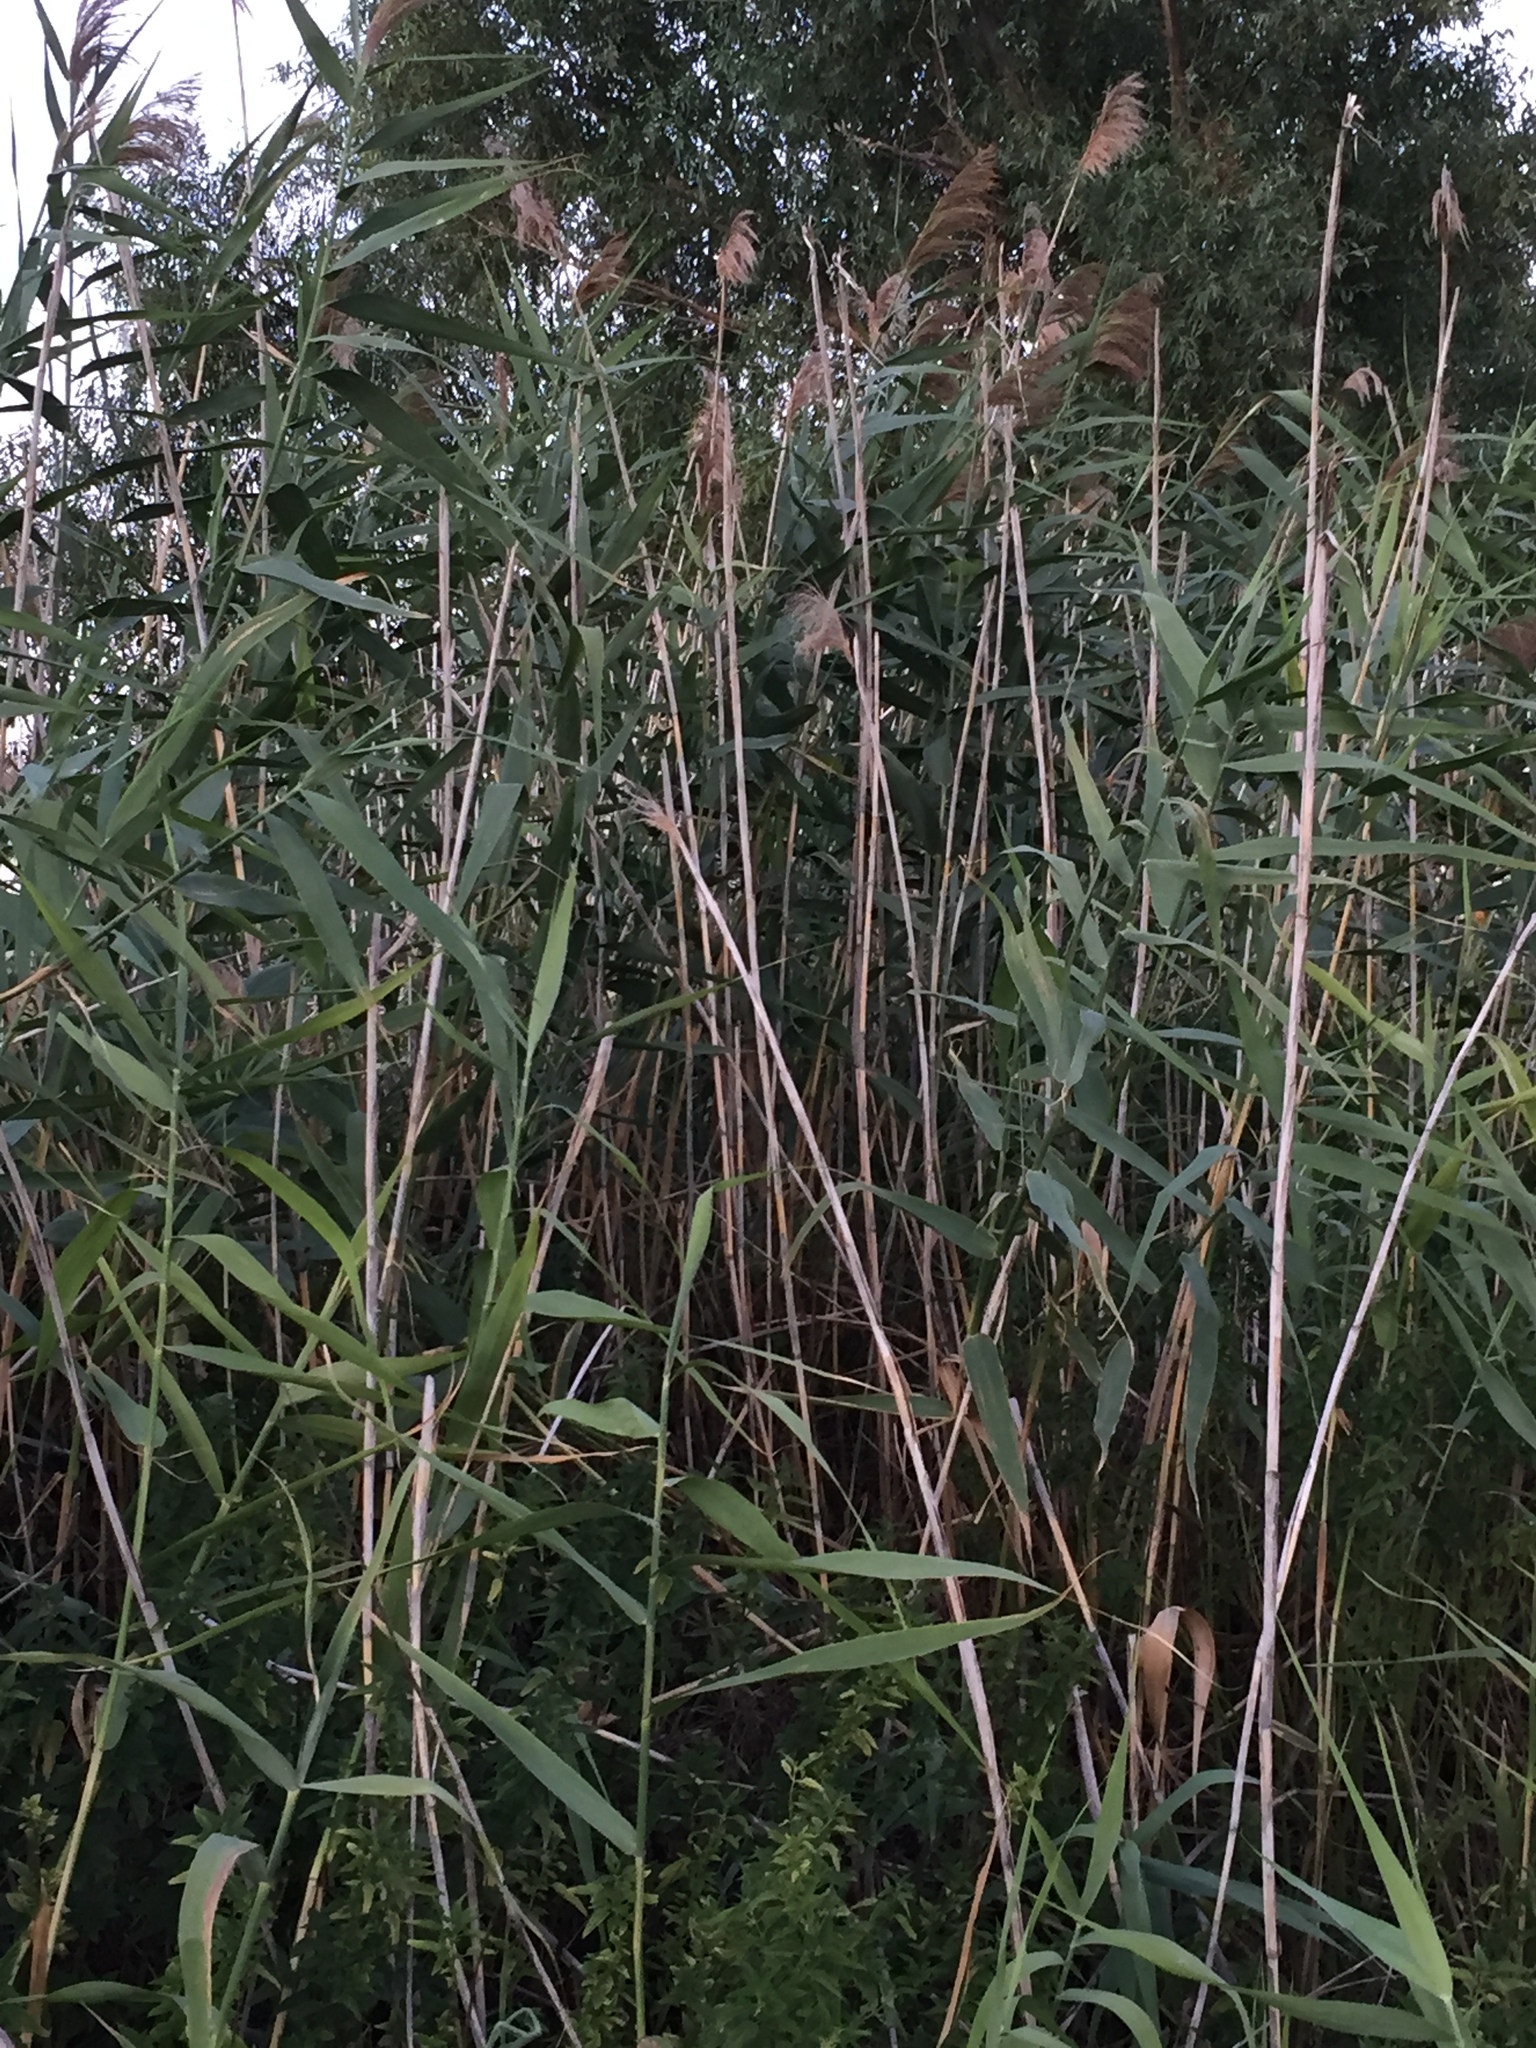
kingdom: Plantae
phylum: Tracheophyta
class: Liliopsida
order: Poales
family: Poaceae
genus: Phragmites
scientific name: Phragmites australis
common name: Common reed
